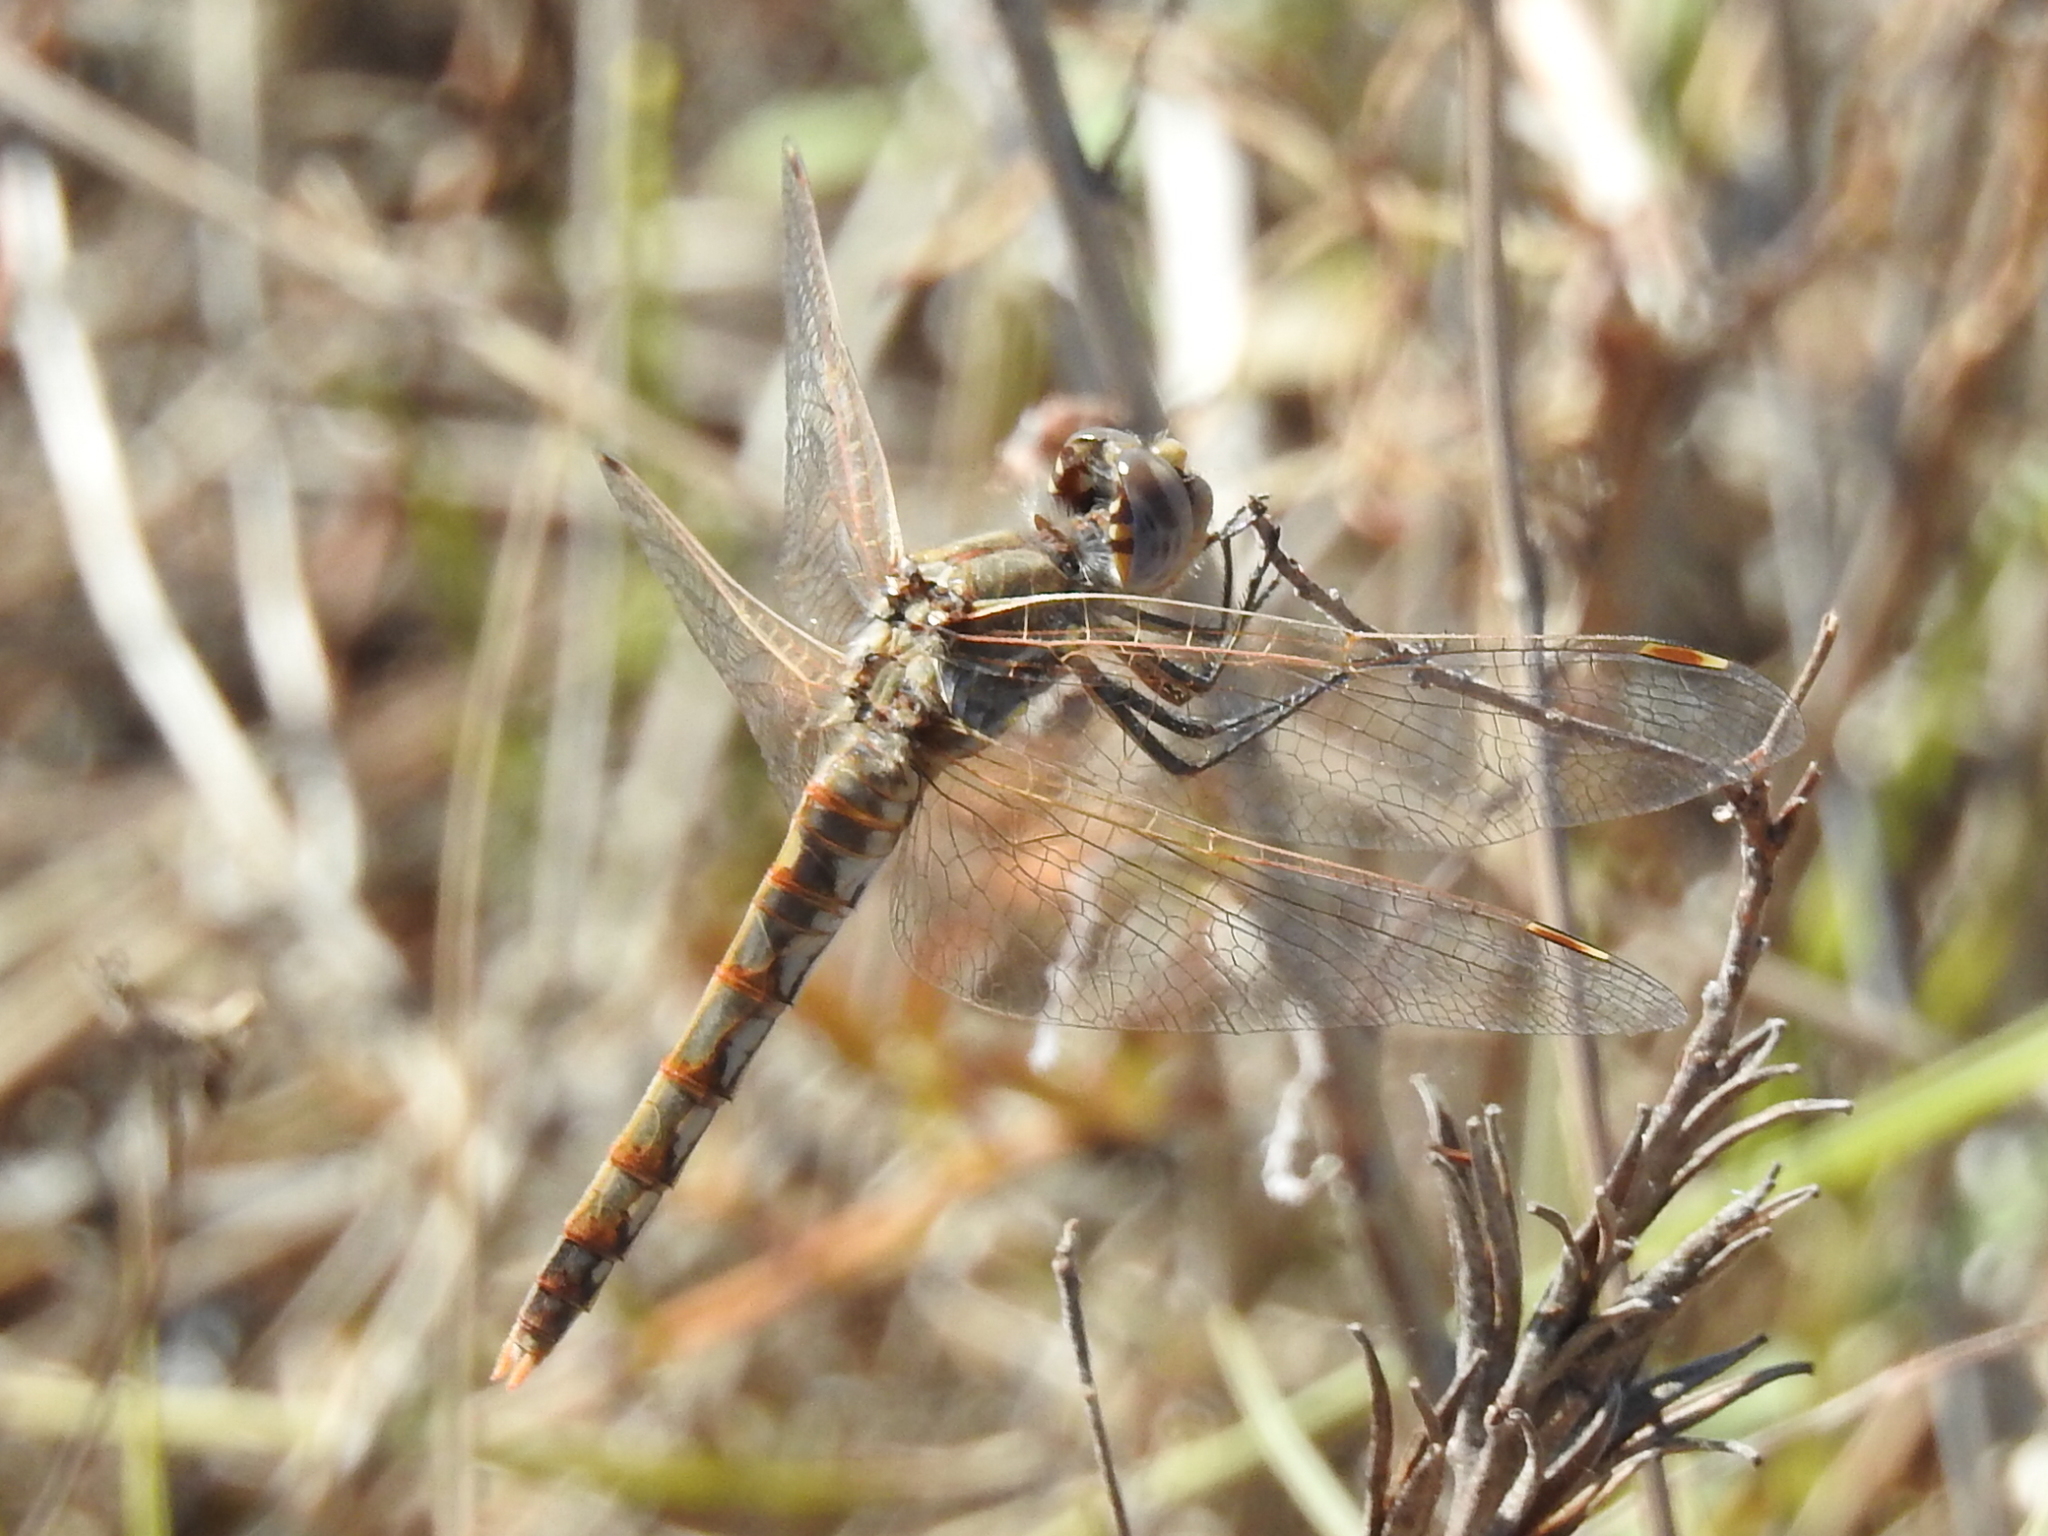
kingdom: Animalia
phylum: Arthropoda
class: Insecta
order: Odonata
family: Libellulidae
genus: Sympetrum
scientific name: Sympetrum corruptum
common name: Variegated meadowhawk
